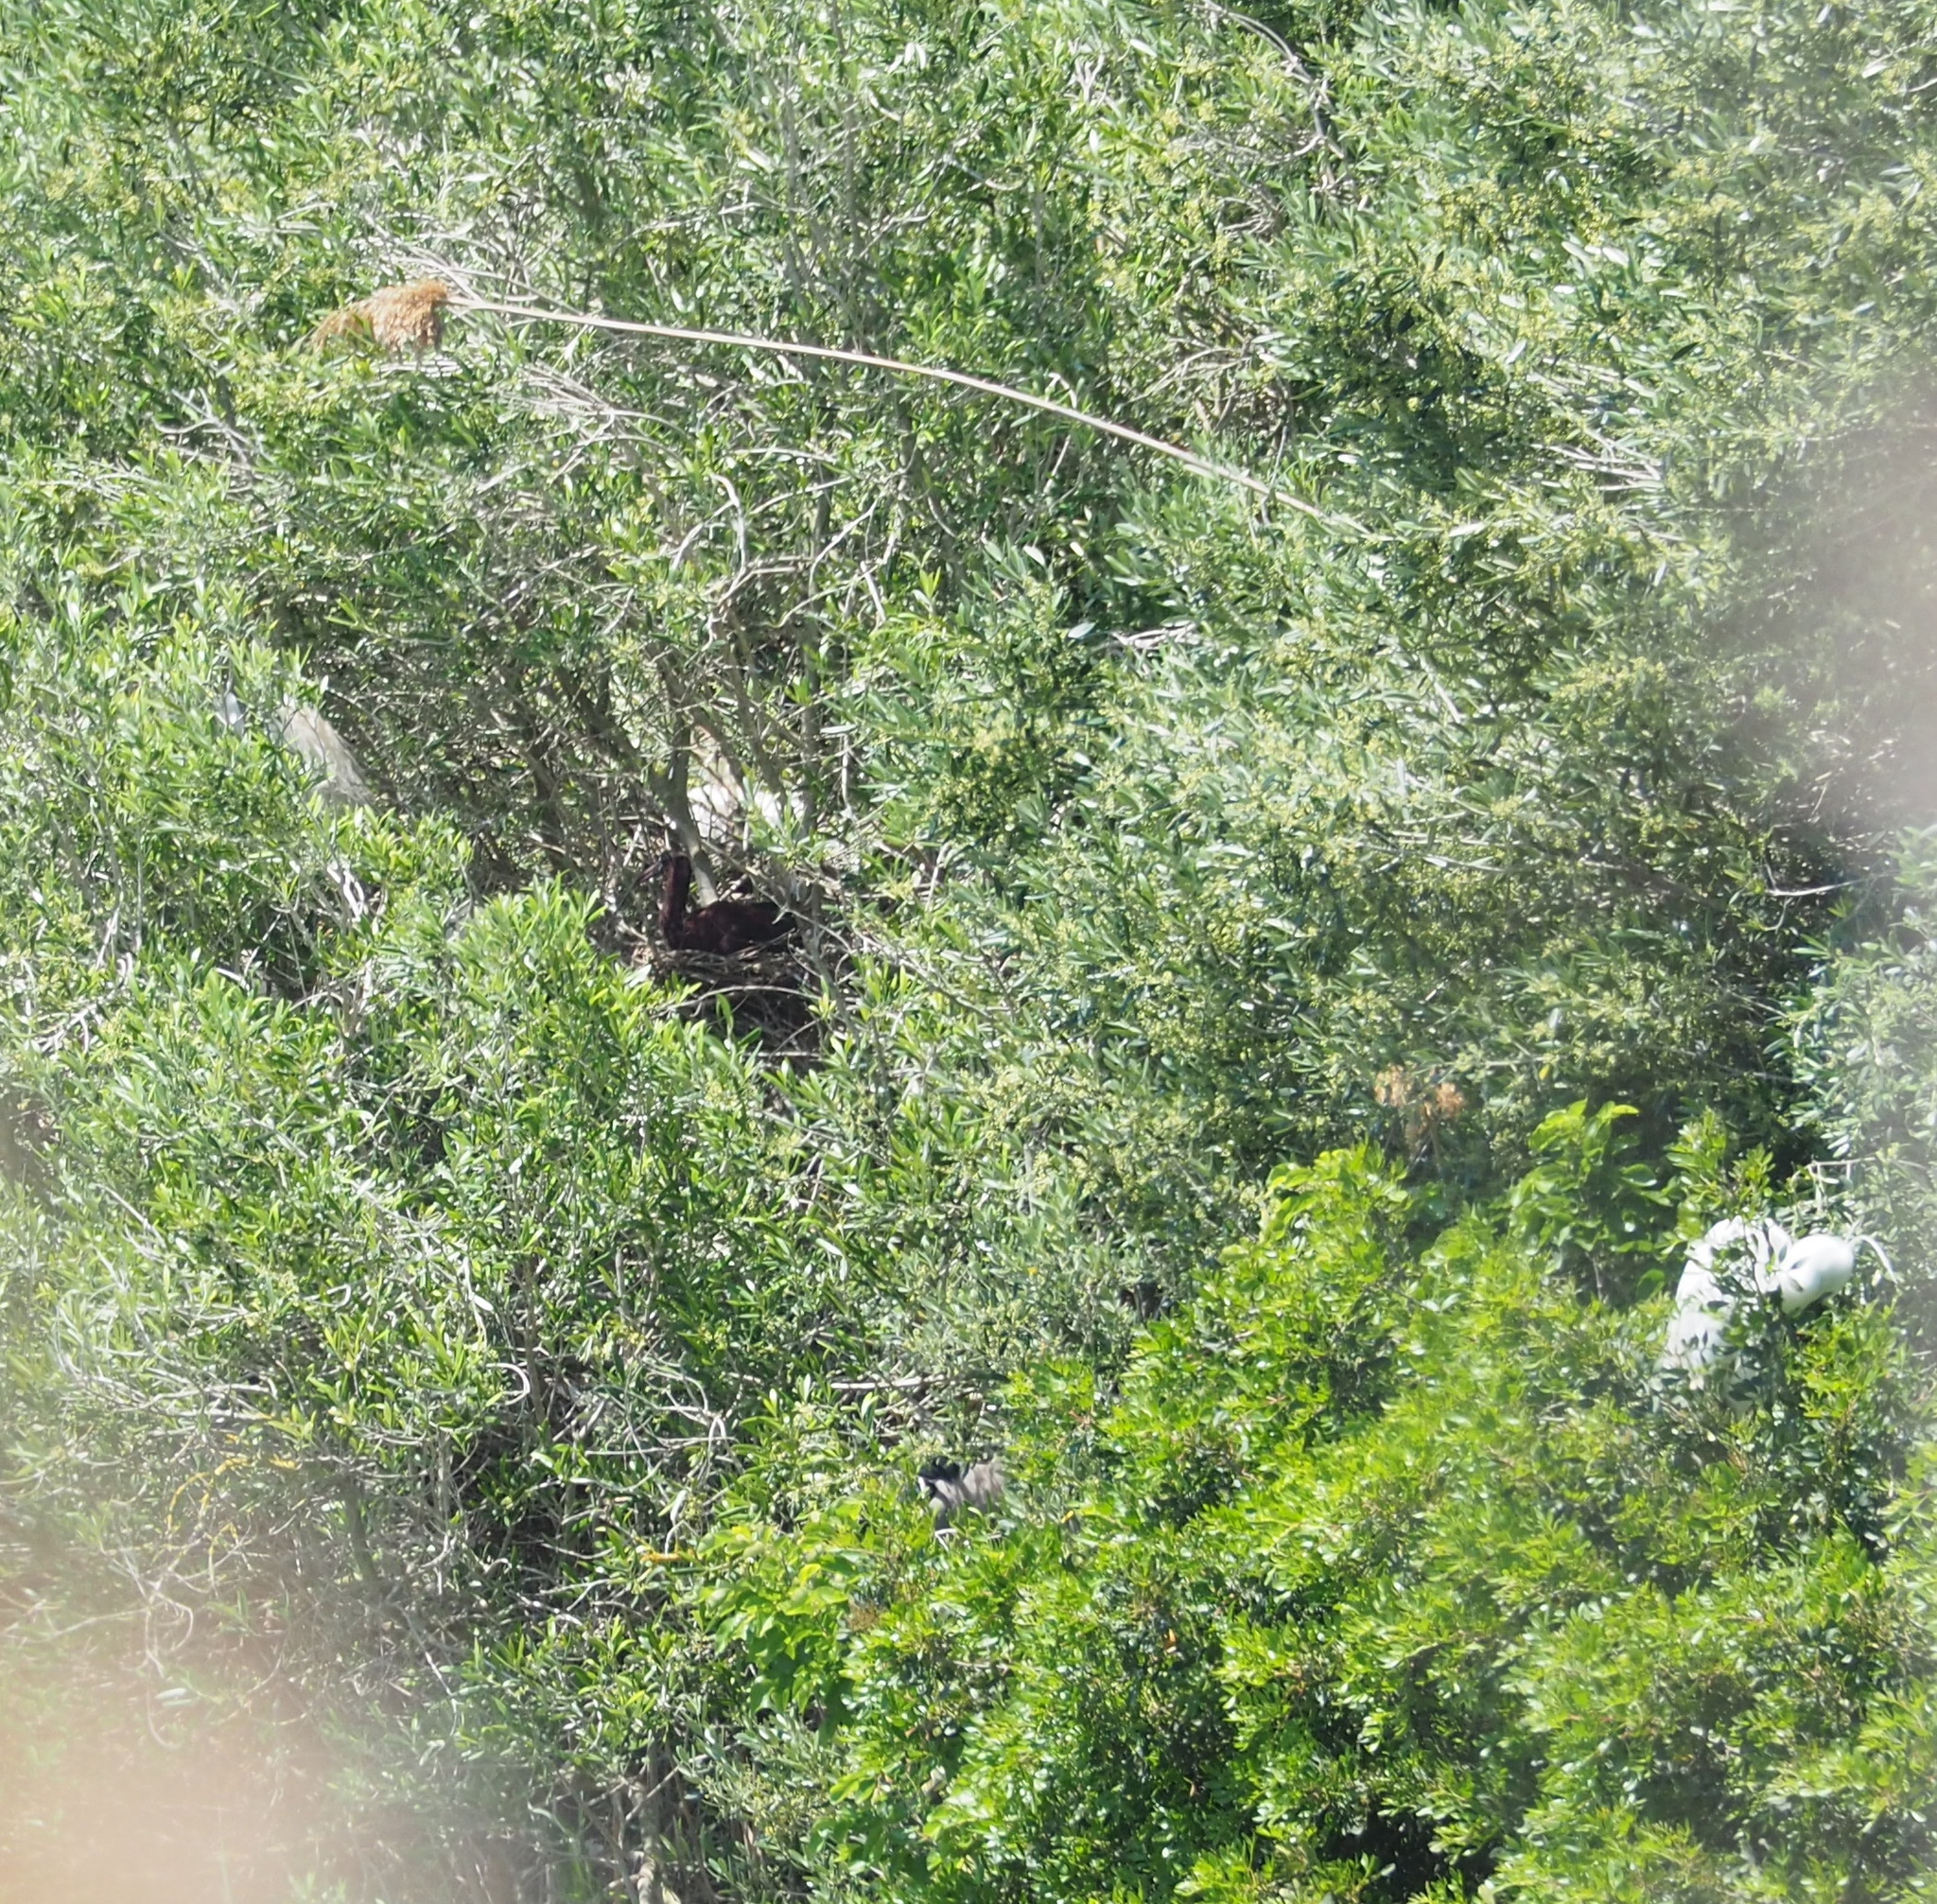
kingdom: Animalia
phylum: Chordata
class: Aves
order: Pelecaniformes
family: Threskiornithidae
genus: Plegadis
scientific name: Plegadis falcinellus
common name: Glossy ibis
